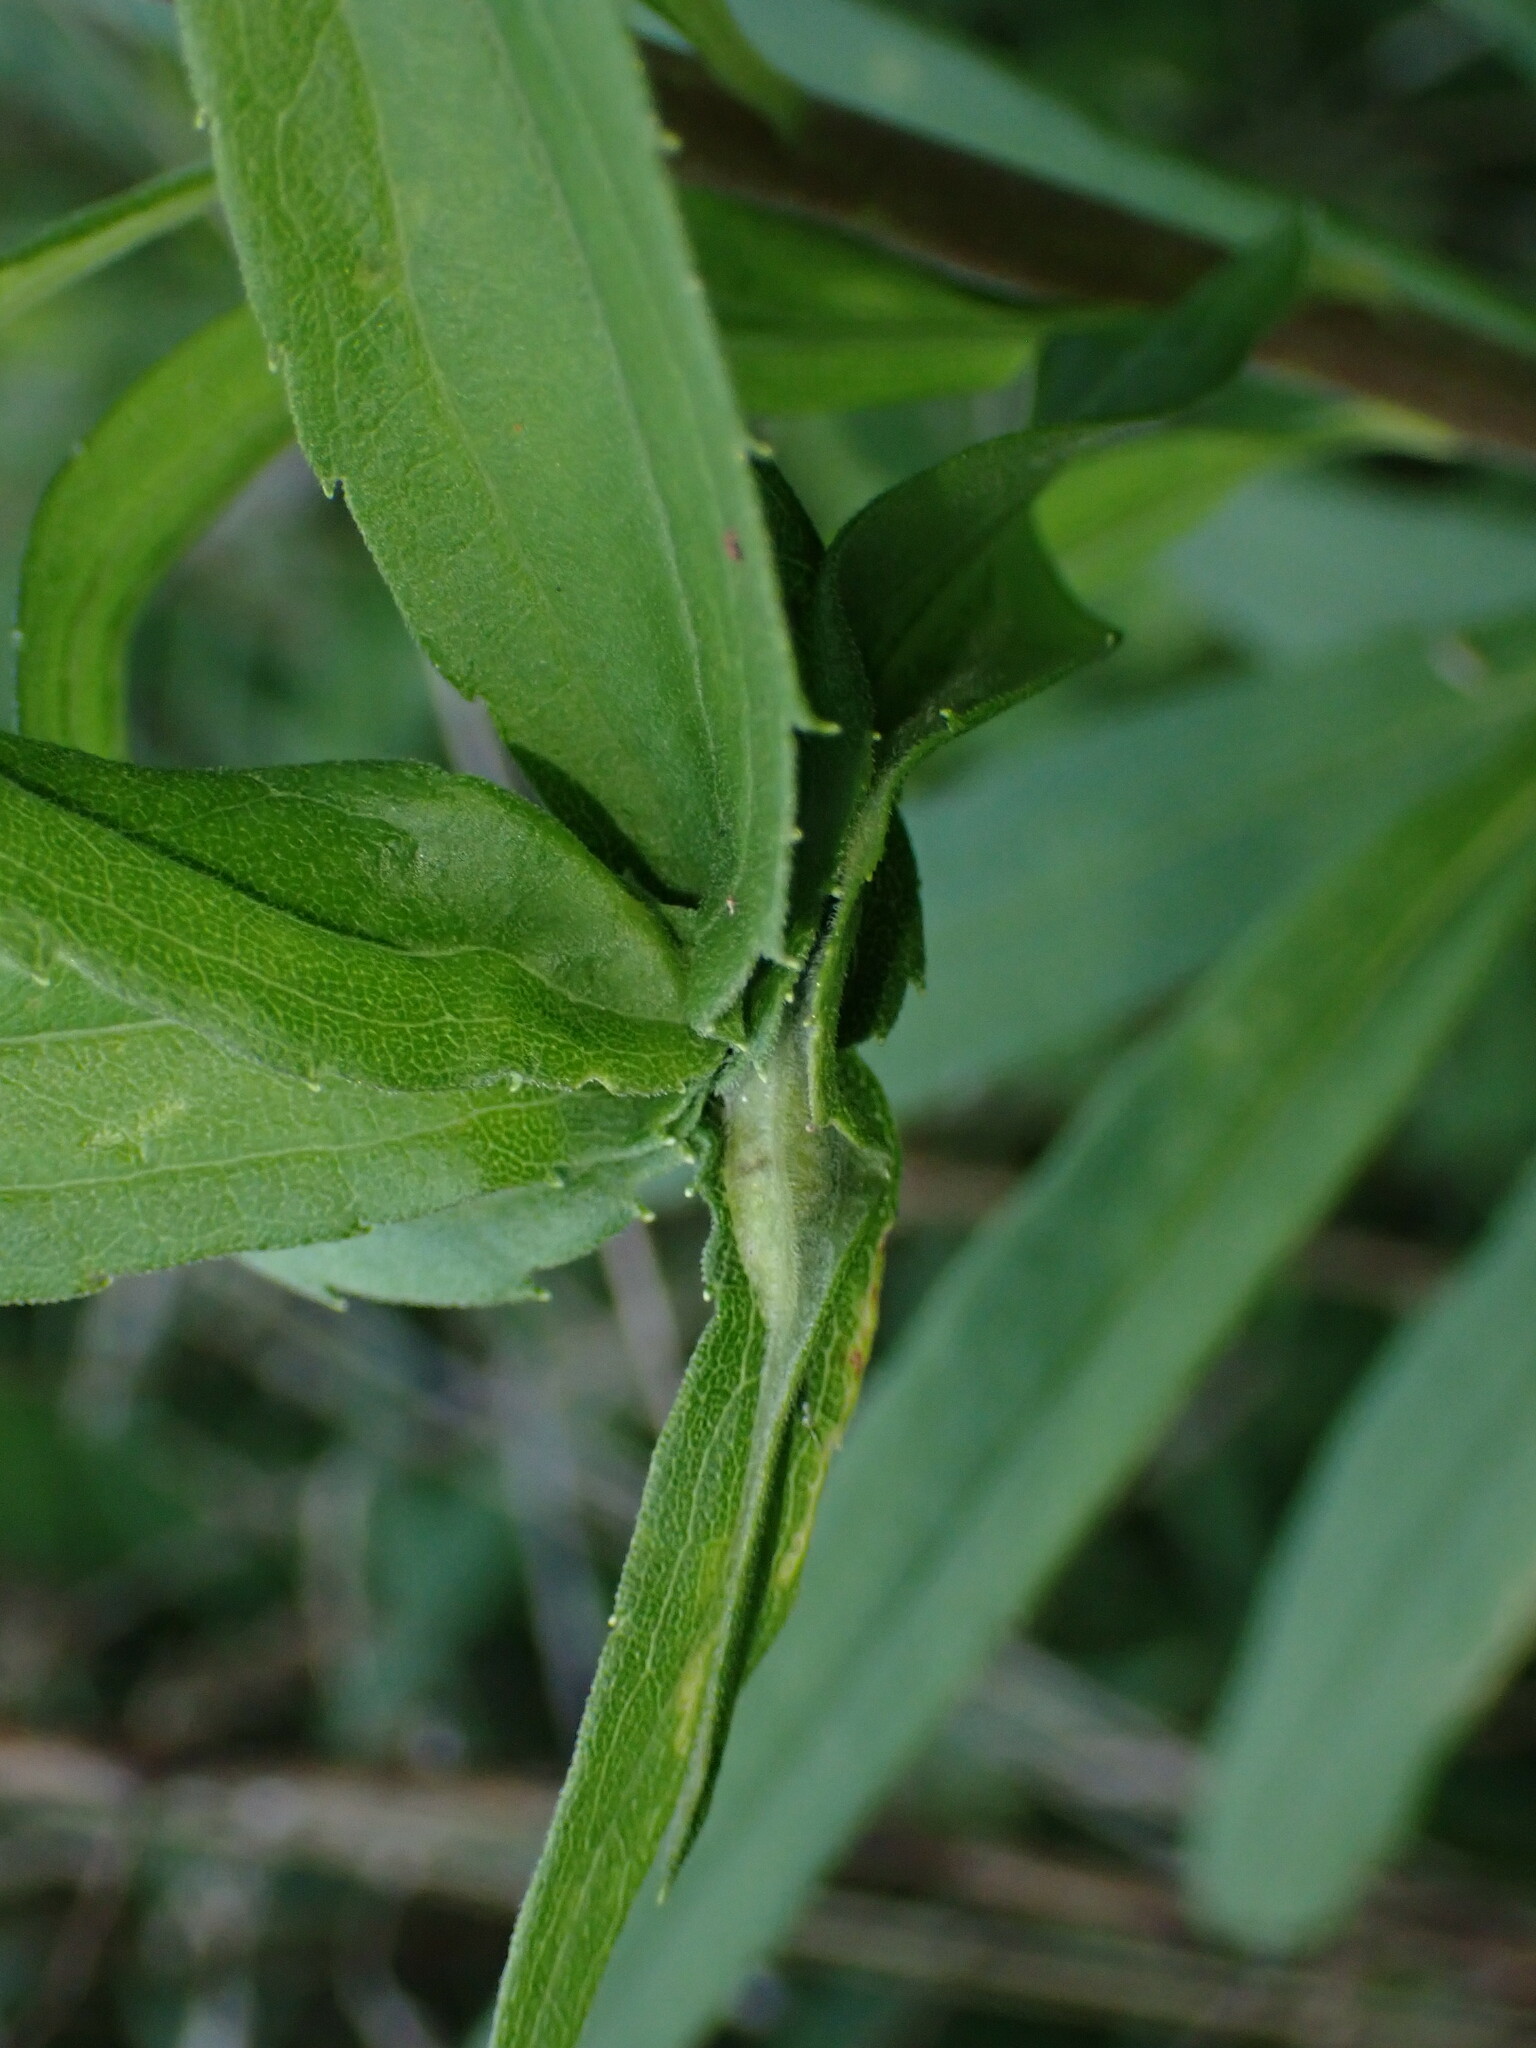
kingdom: Animalia
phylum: Arthropoda
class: Insecta
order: Diptera
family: Cecidomyiidae
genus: Asphondylia
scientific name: Asphondylia solidaginis
